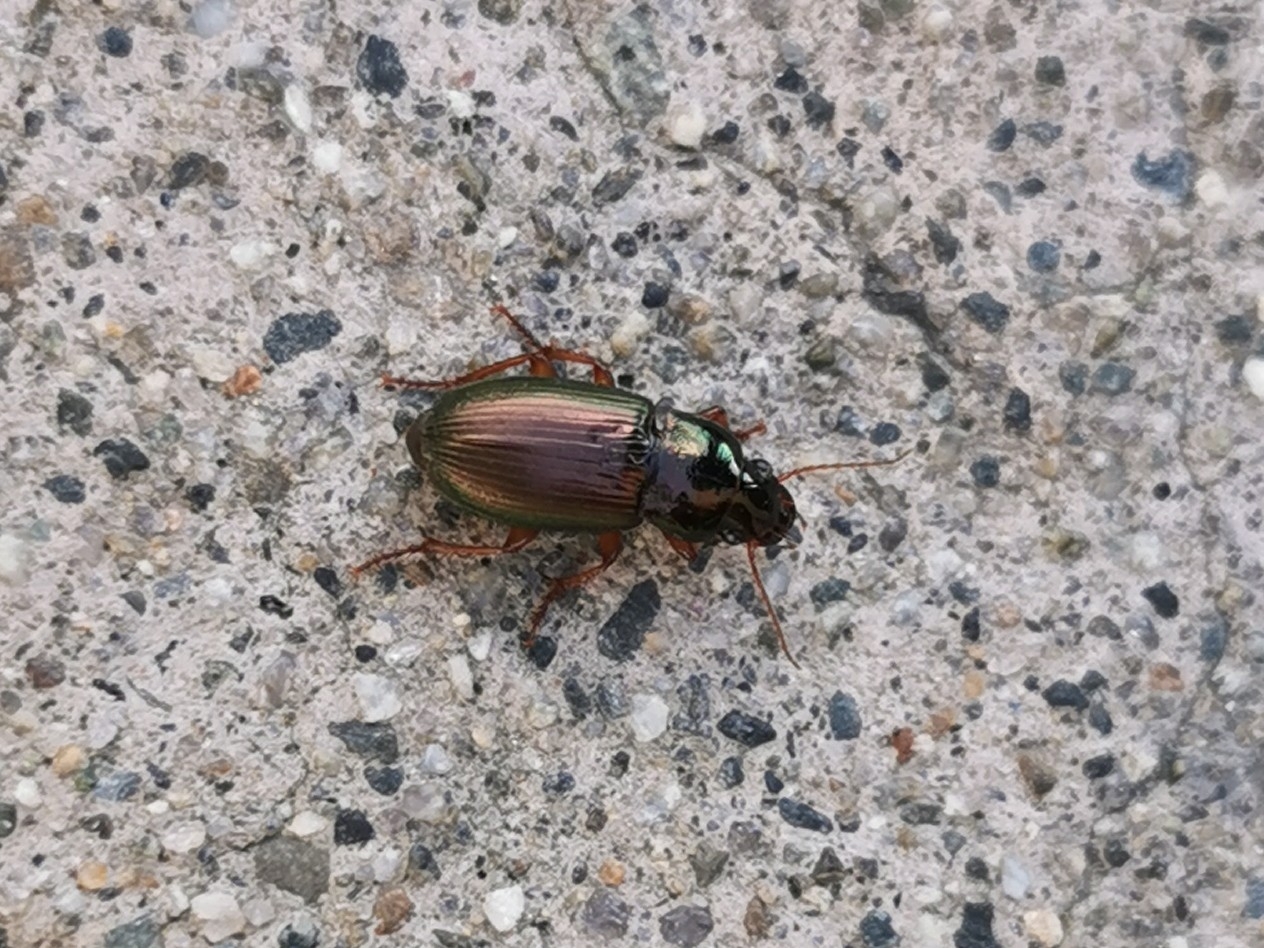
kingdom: Animalia
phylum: Arthropoda
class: Insecta
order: Coleoptera
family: Carabidae
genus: Harpalus
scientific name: Harpalus affinis
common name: Polychrome harp ground beetle
